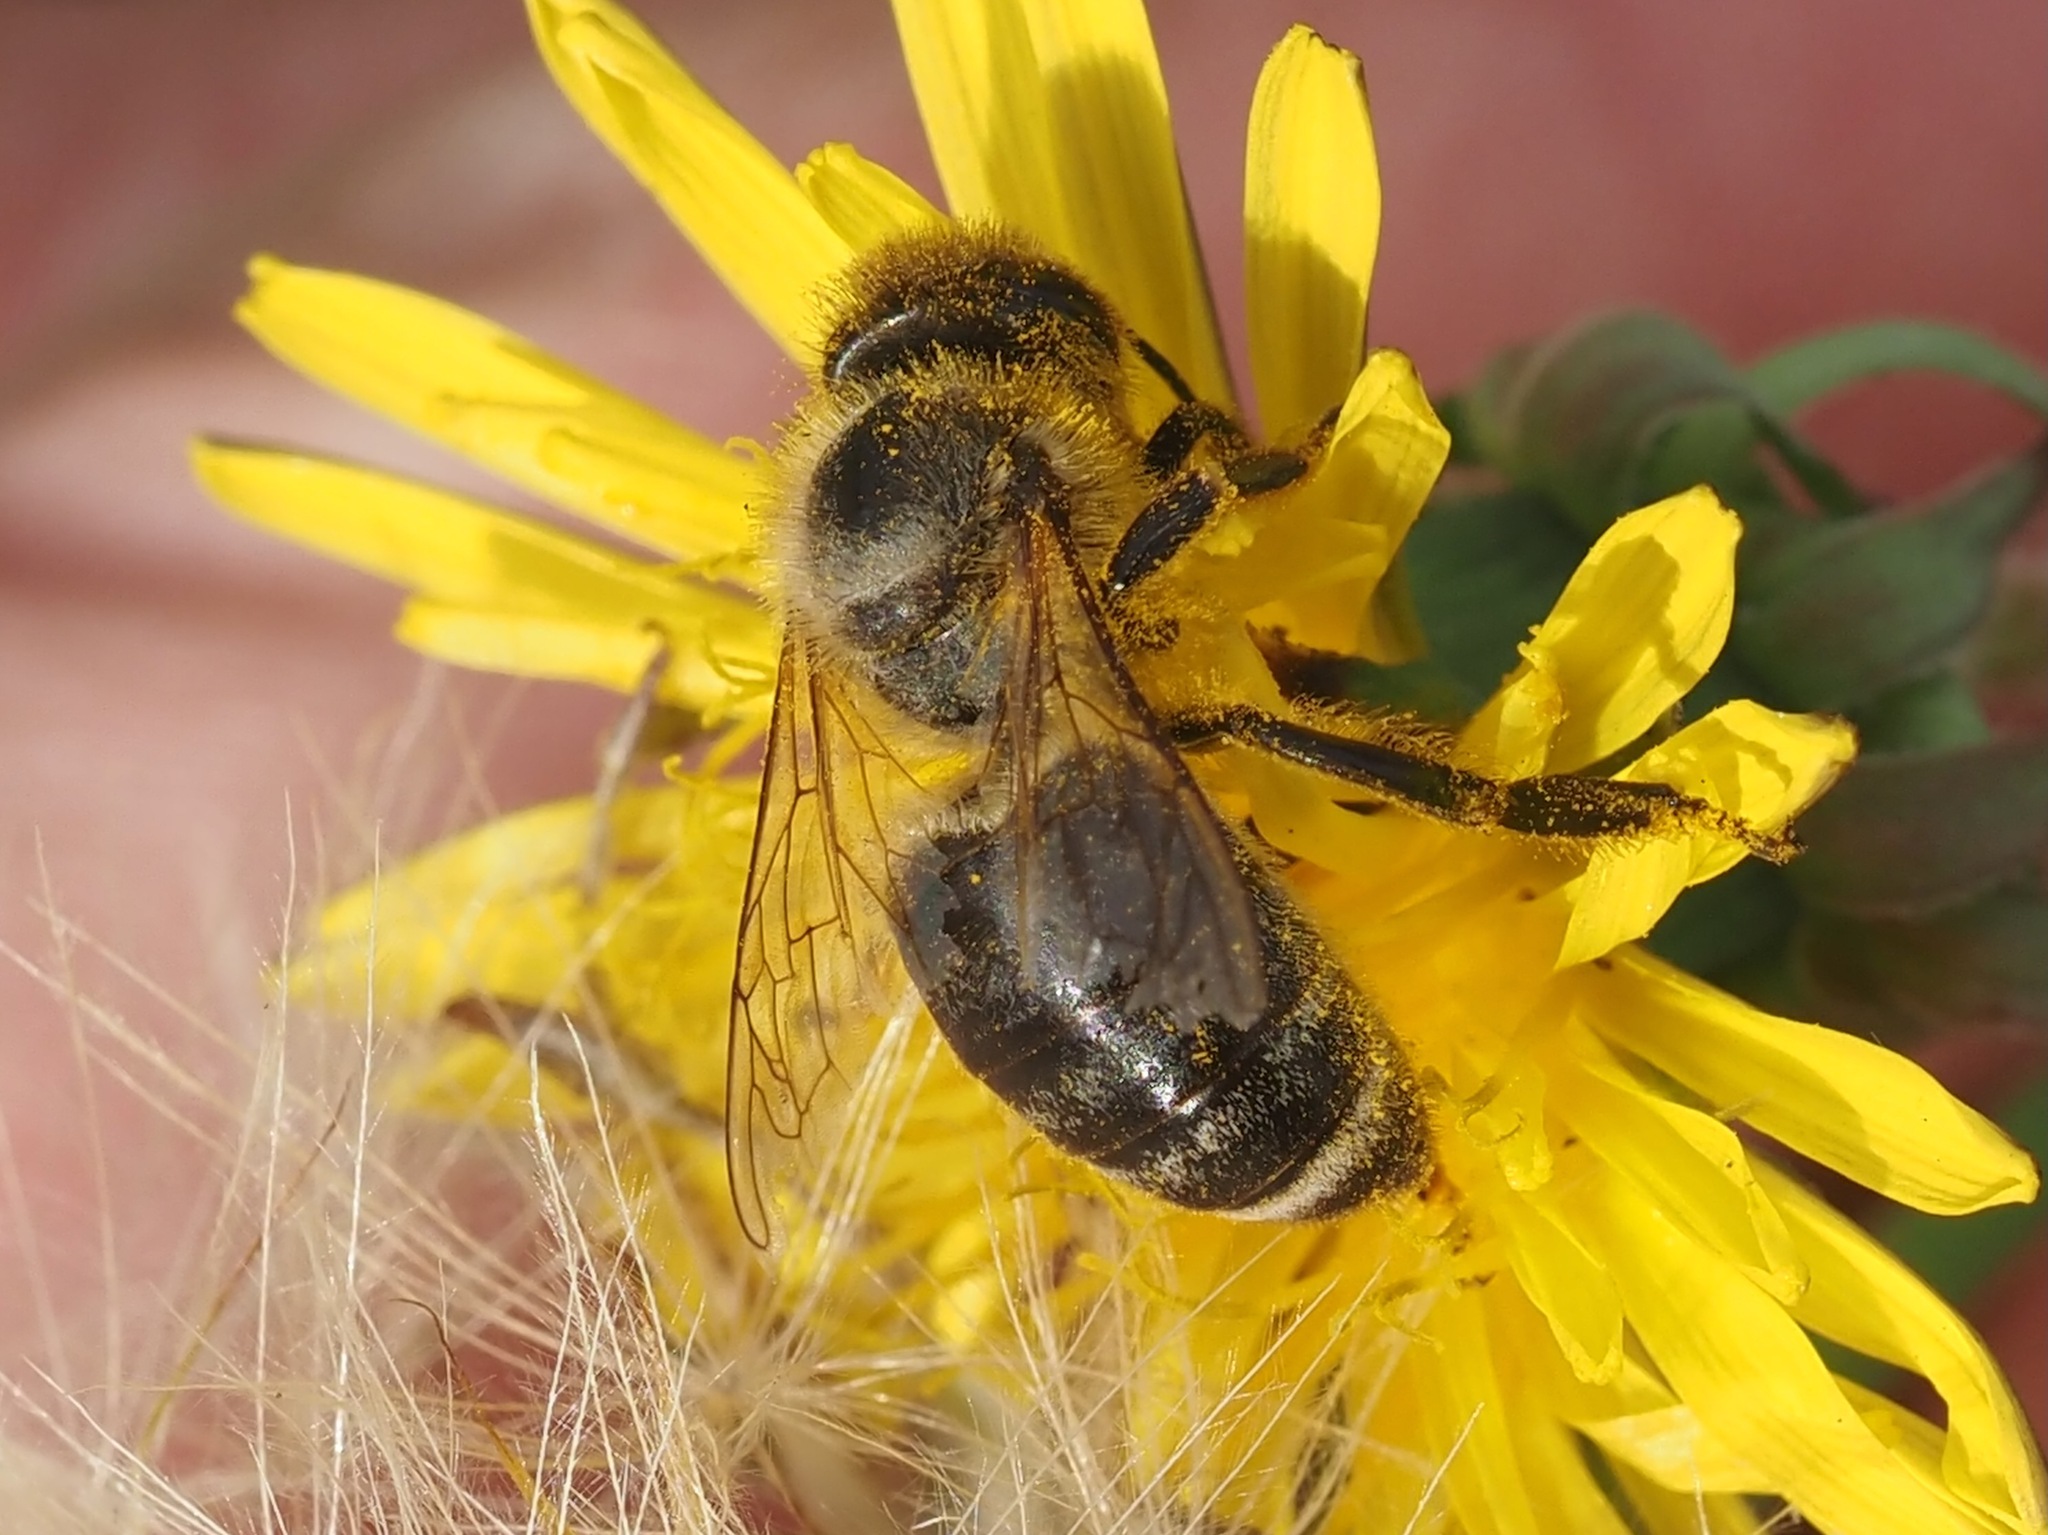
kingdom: Animalia
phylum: Arthropoda
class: Insecta
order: Hymenoptera
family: Apidae
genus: Apis
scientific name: Apis mellifera
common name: Honey bee
